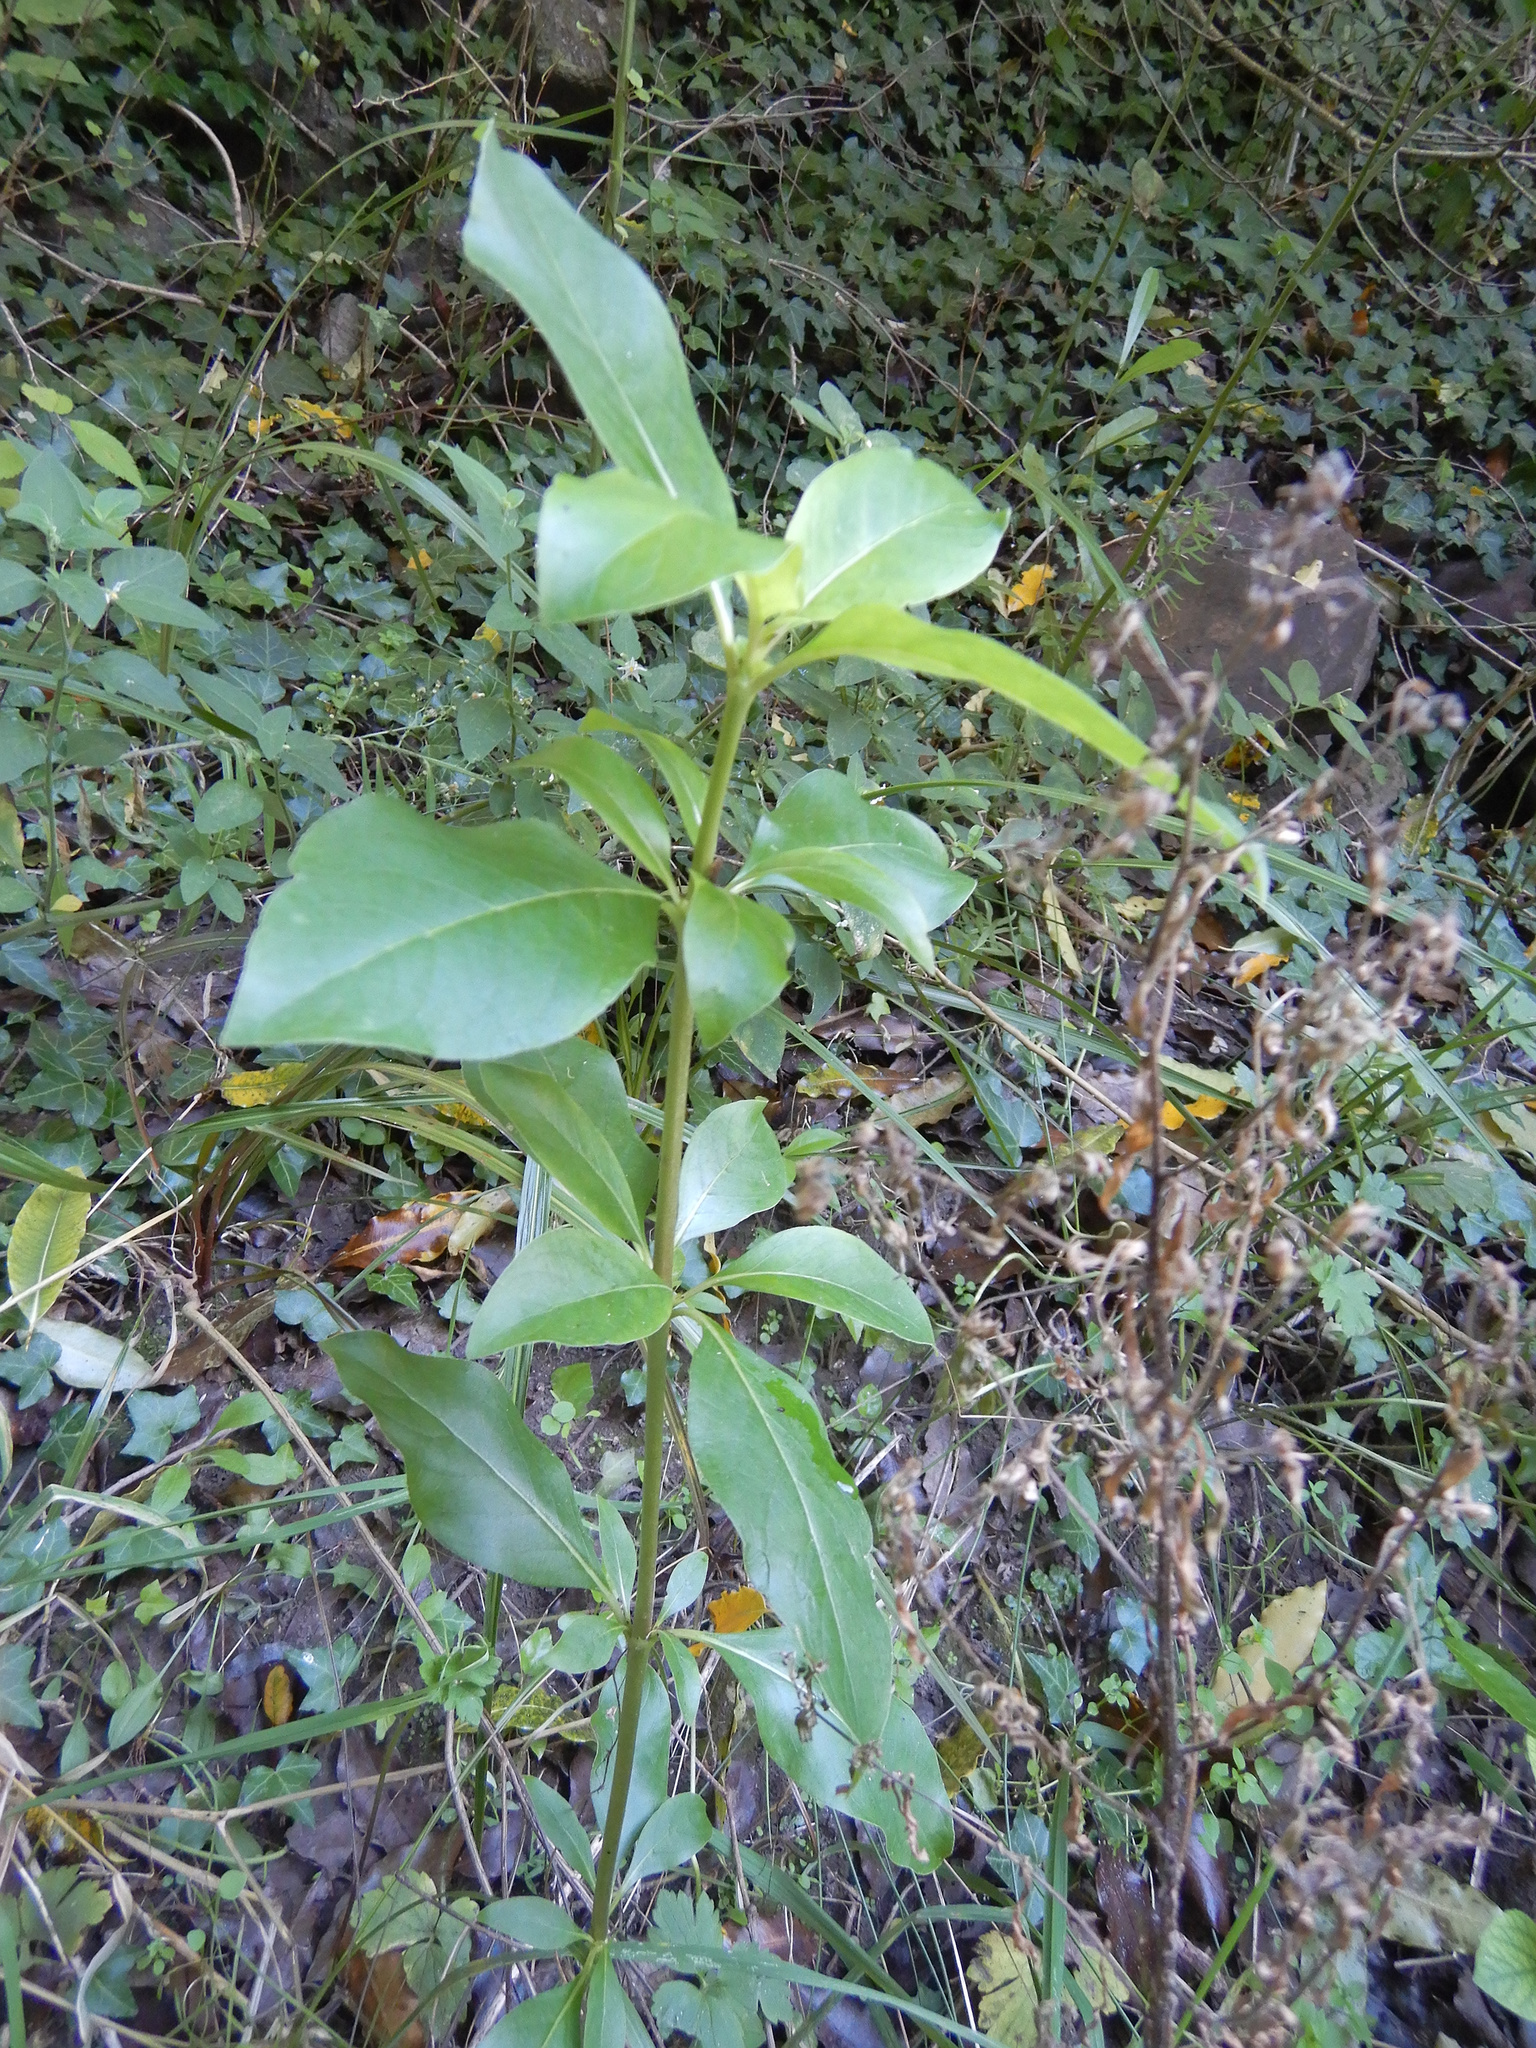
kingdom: Plantae
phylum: Tracheophyta
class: Magnoliopsida
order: Gentianales
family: Rubiaceae
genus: Coprosma
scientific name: Coprosma robusta
